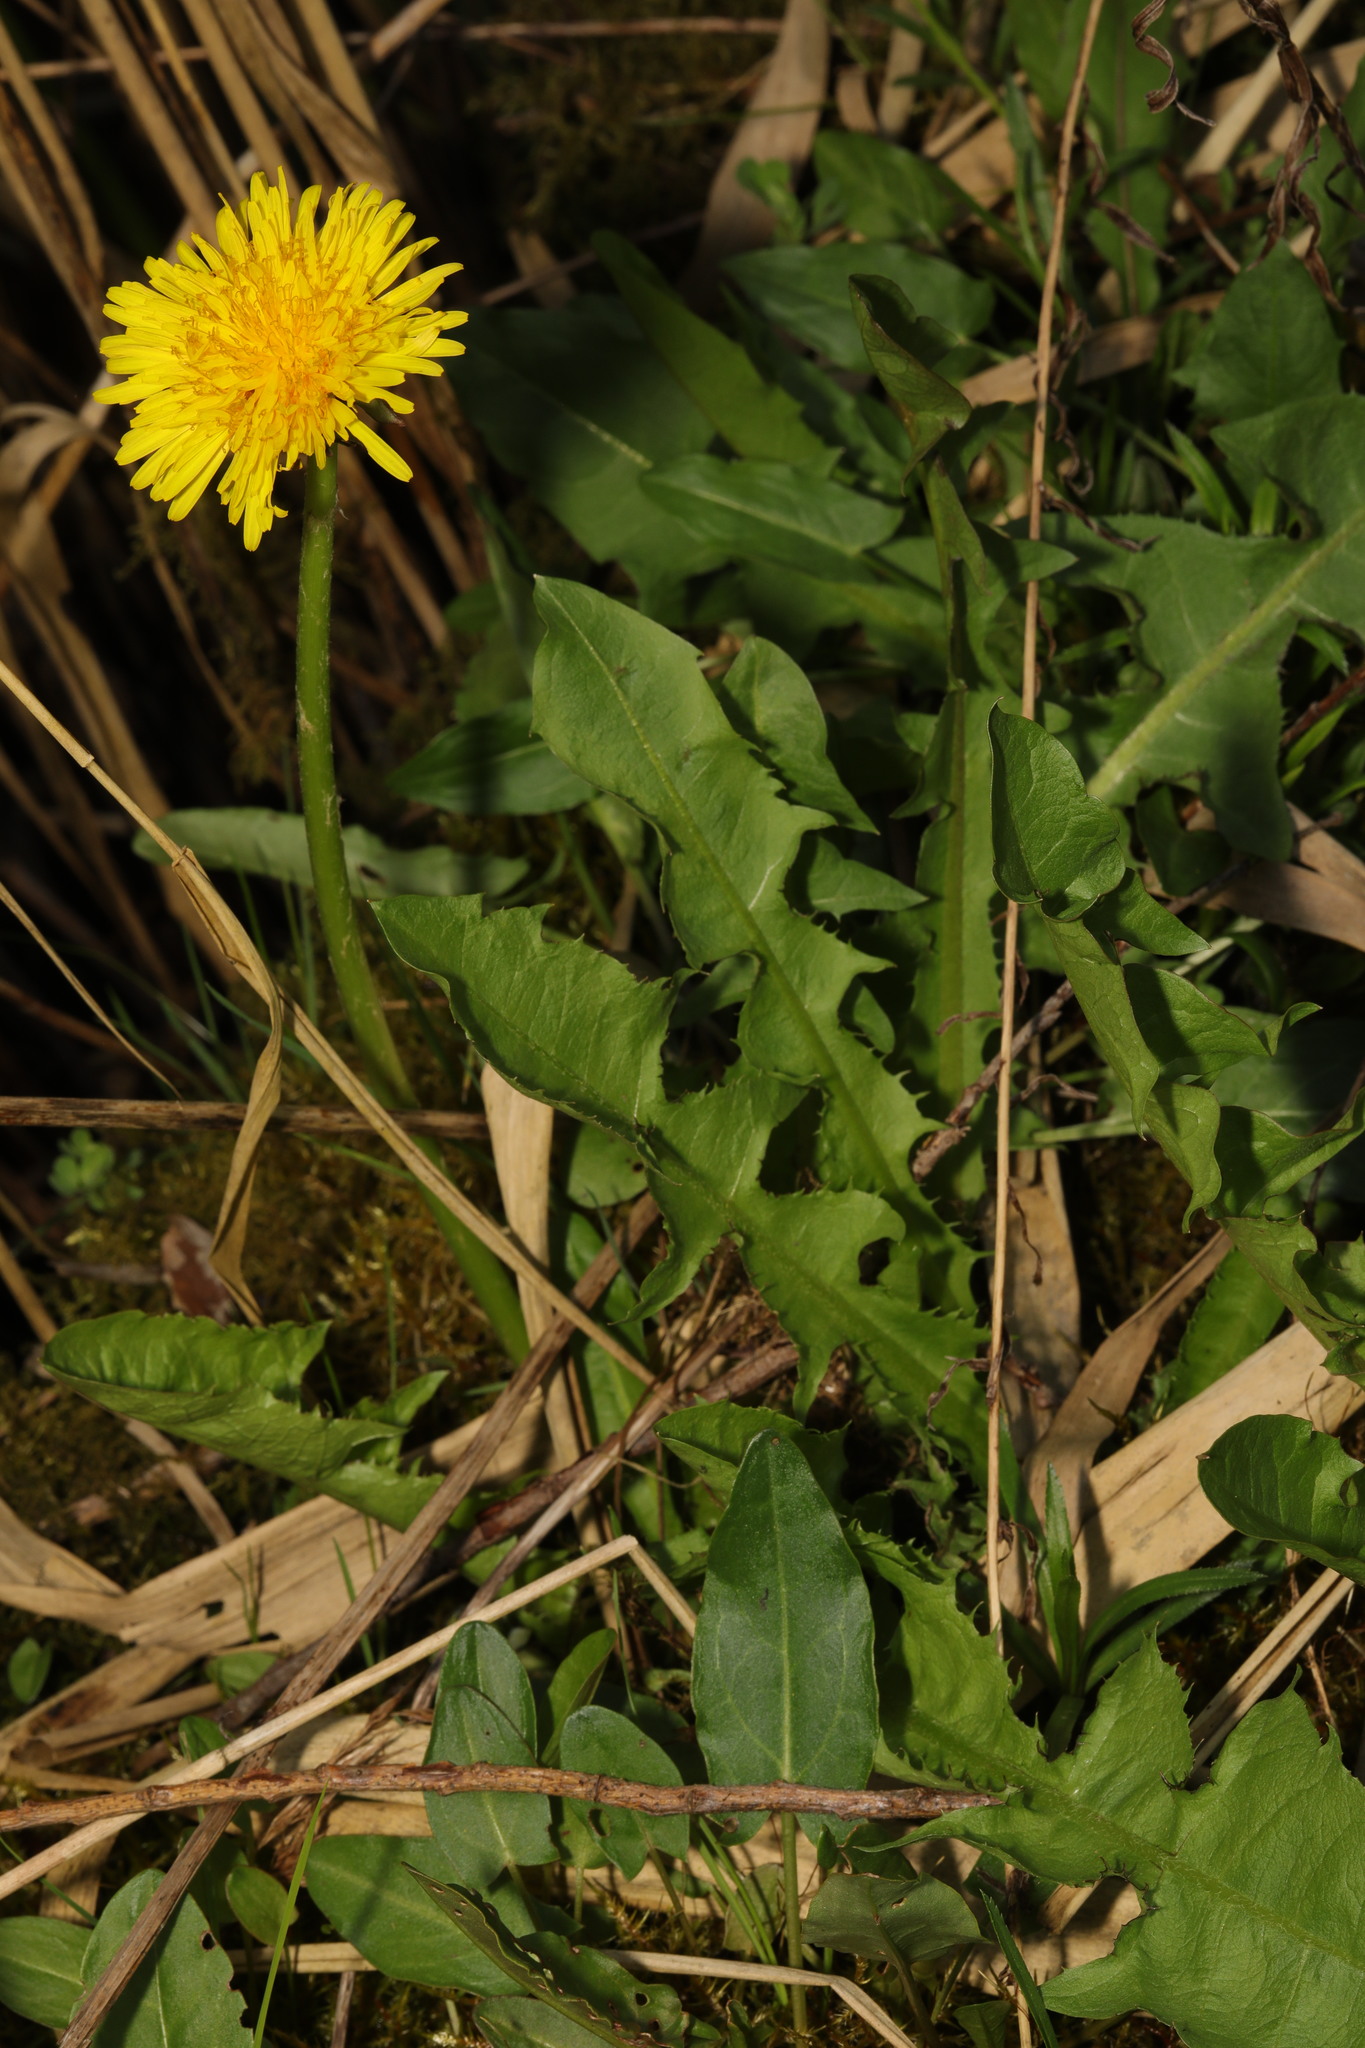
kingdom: Plantae
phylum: Tracheophyta
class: Magnoliopsida
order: Asterales
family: Asteraceae
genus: Taraxacum
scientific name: Taraxacum officinale
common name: Common dandelion
